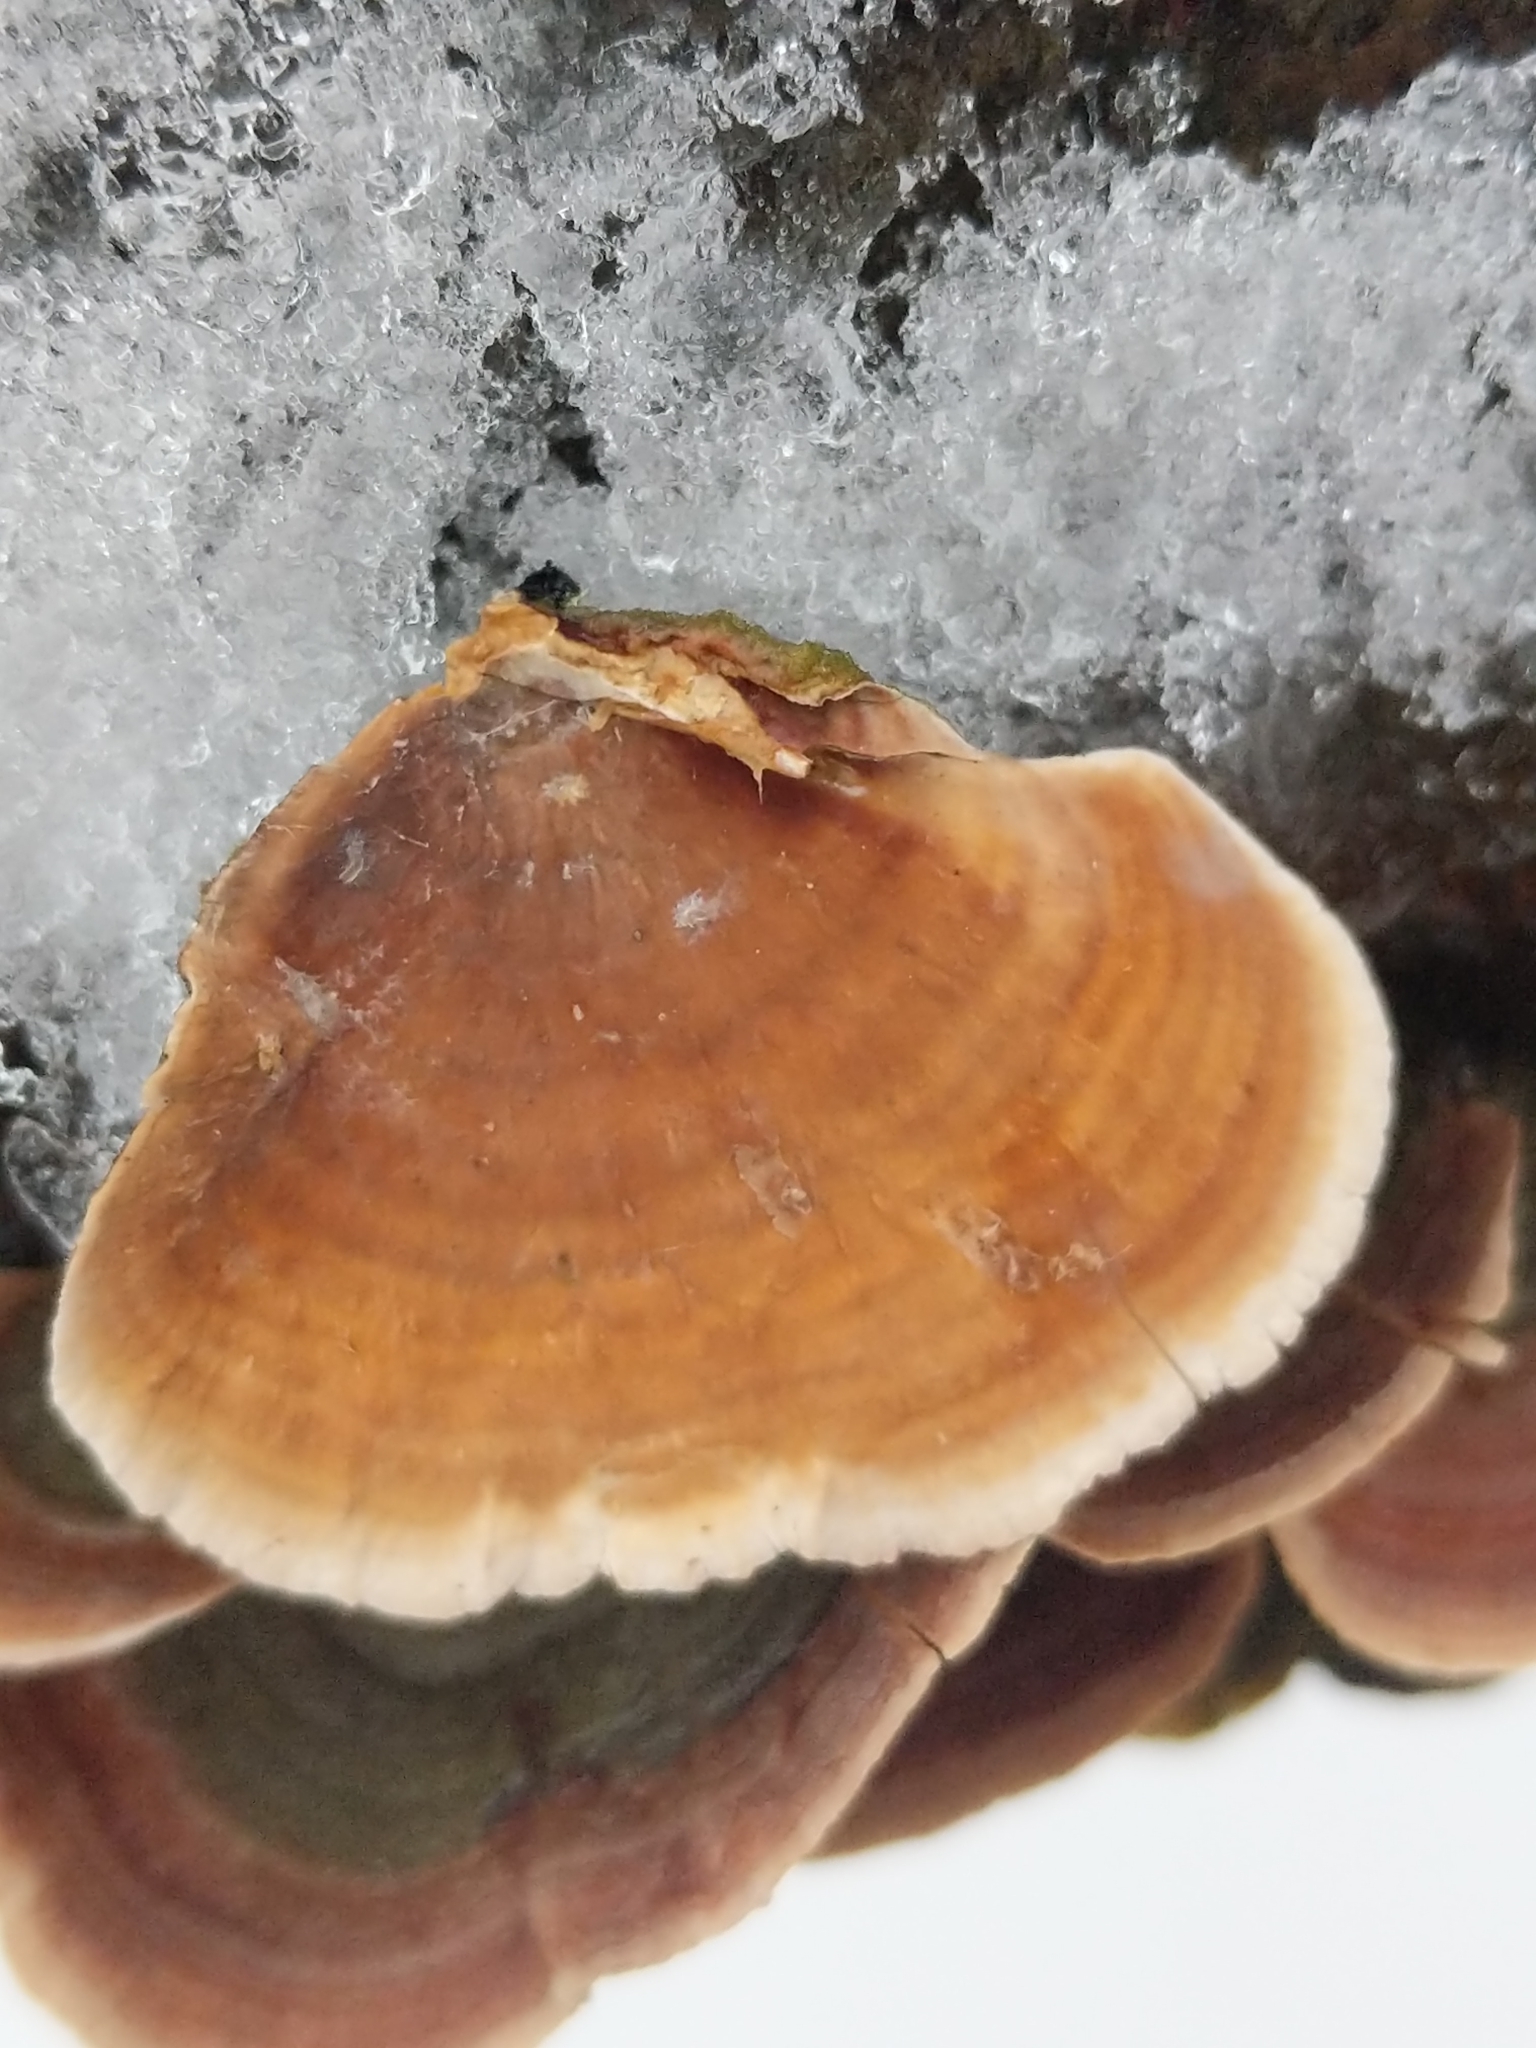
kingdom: Fungi
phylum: Basidiomycota
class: Agaricomycetes
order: Russulales
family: Stereaceae
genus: Stereum
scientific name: Stereum ostrea
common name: False turkeytail
